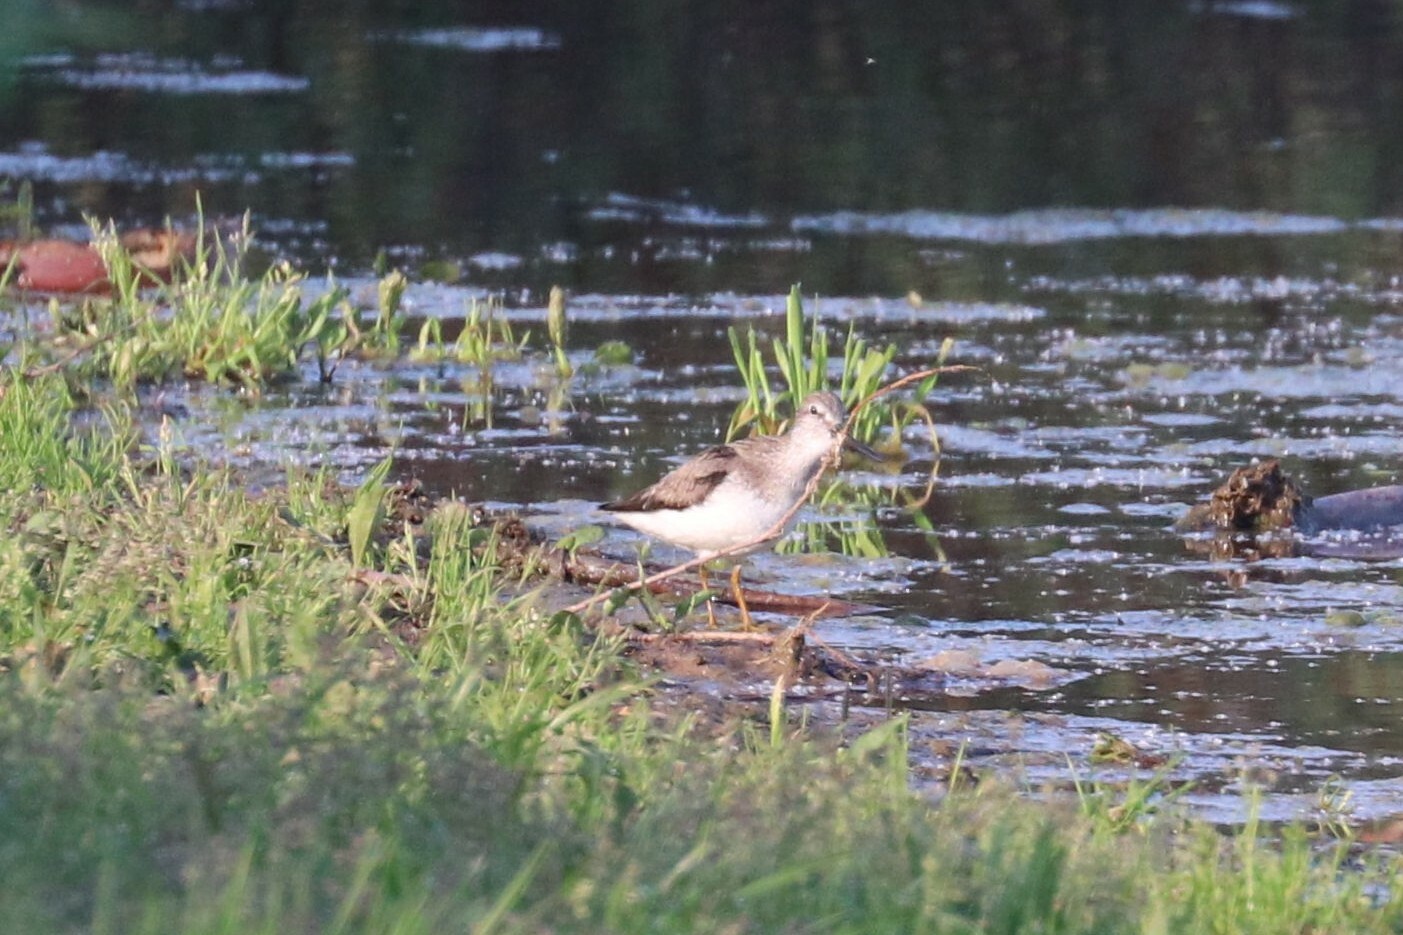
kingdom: Animalia
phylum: Chordata
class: Aves
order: Charadriiformes
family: Scolopacidae
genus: Xenus
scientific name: Xenus cinereus
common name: Terek sandpiper
